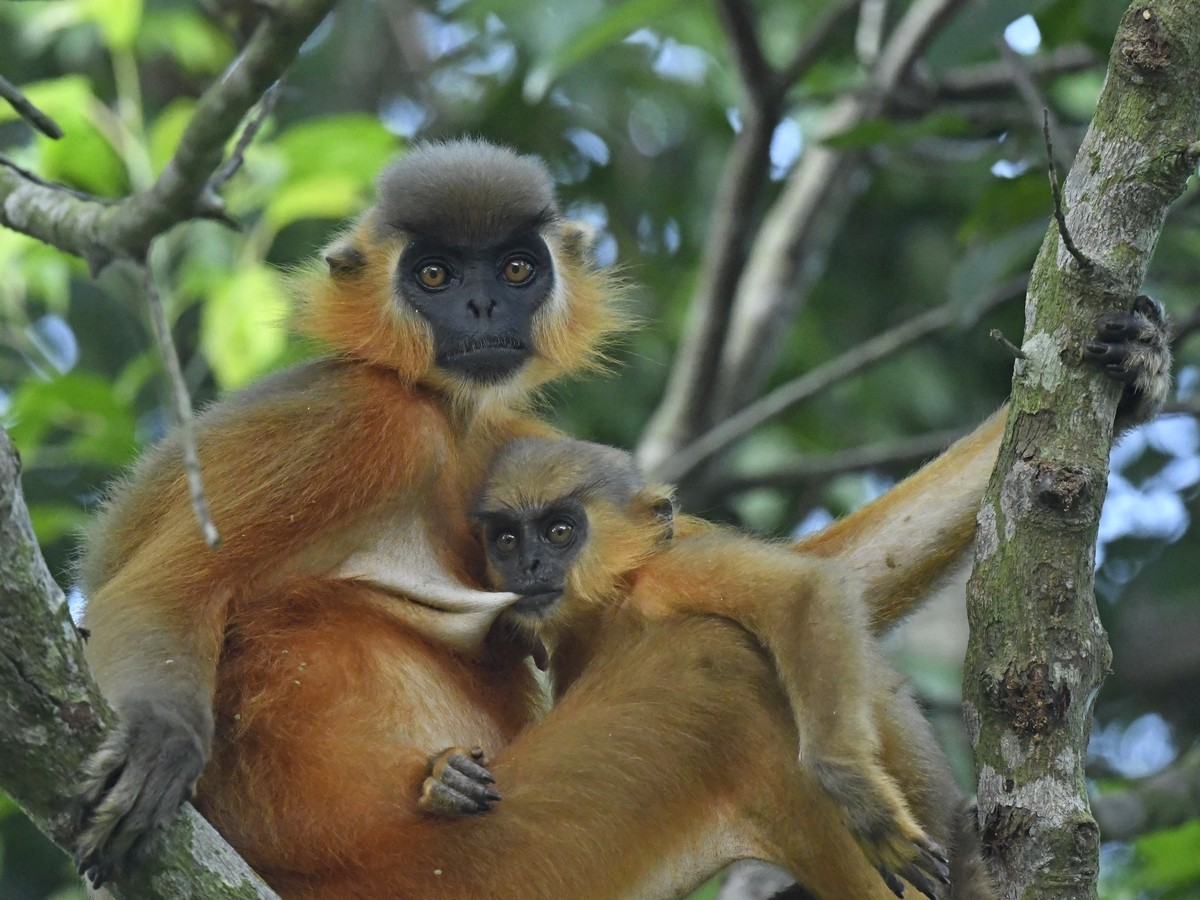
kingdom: Animalia
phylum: Chordata
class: Mammalia
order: Primates
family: Cercopithecidae
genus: Trachypithecus
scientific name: Trachypithecus pileatus
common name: Capped langur
